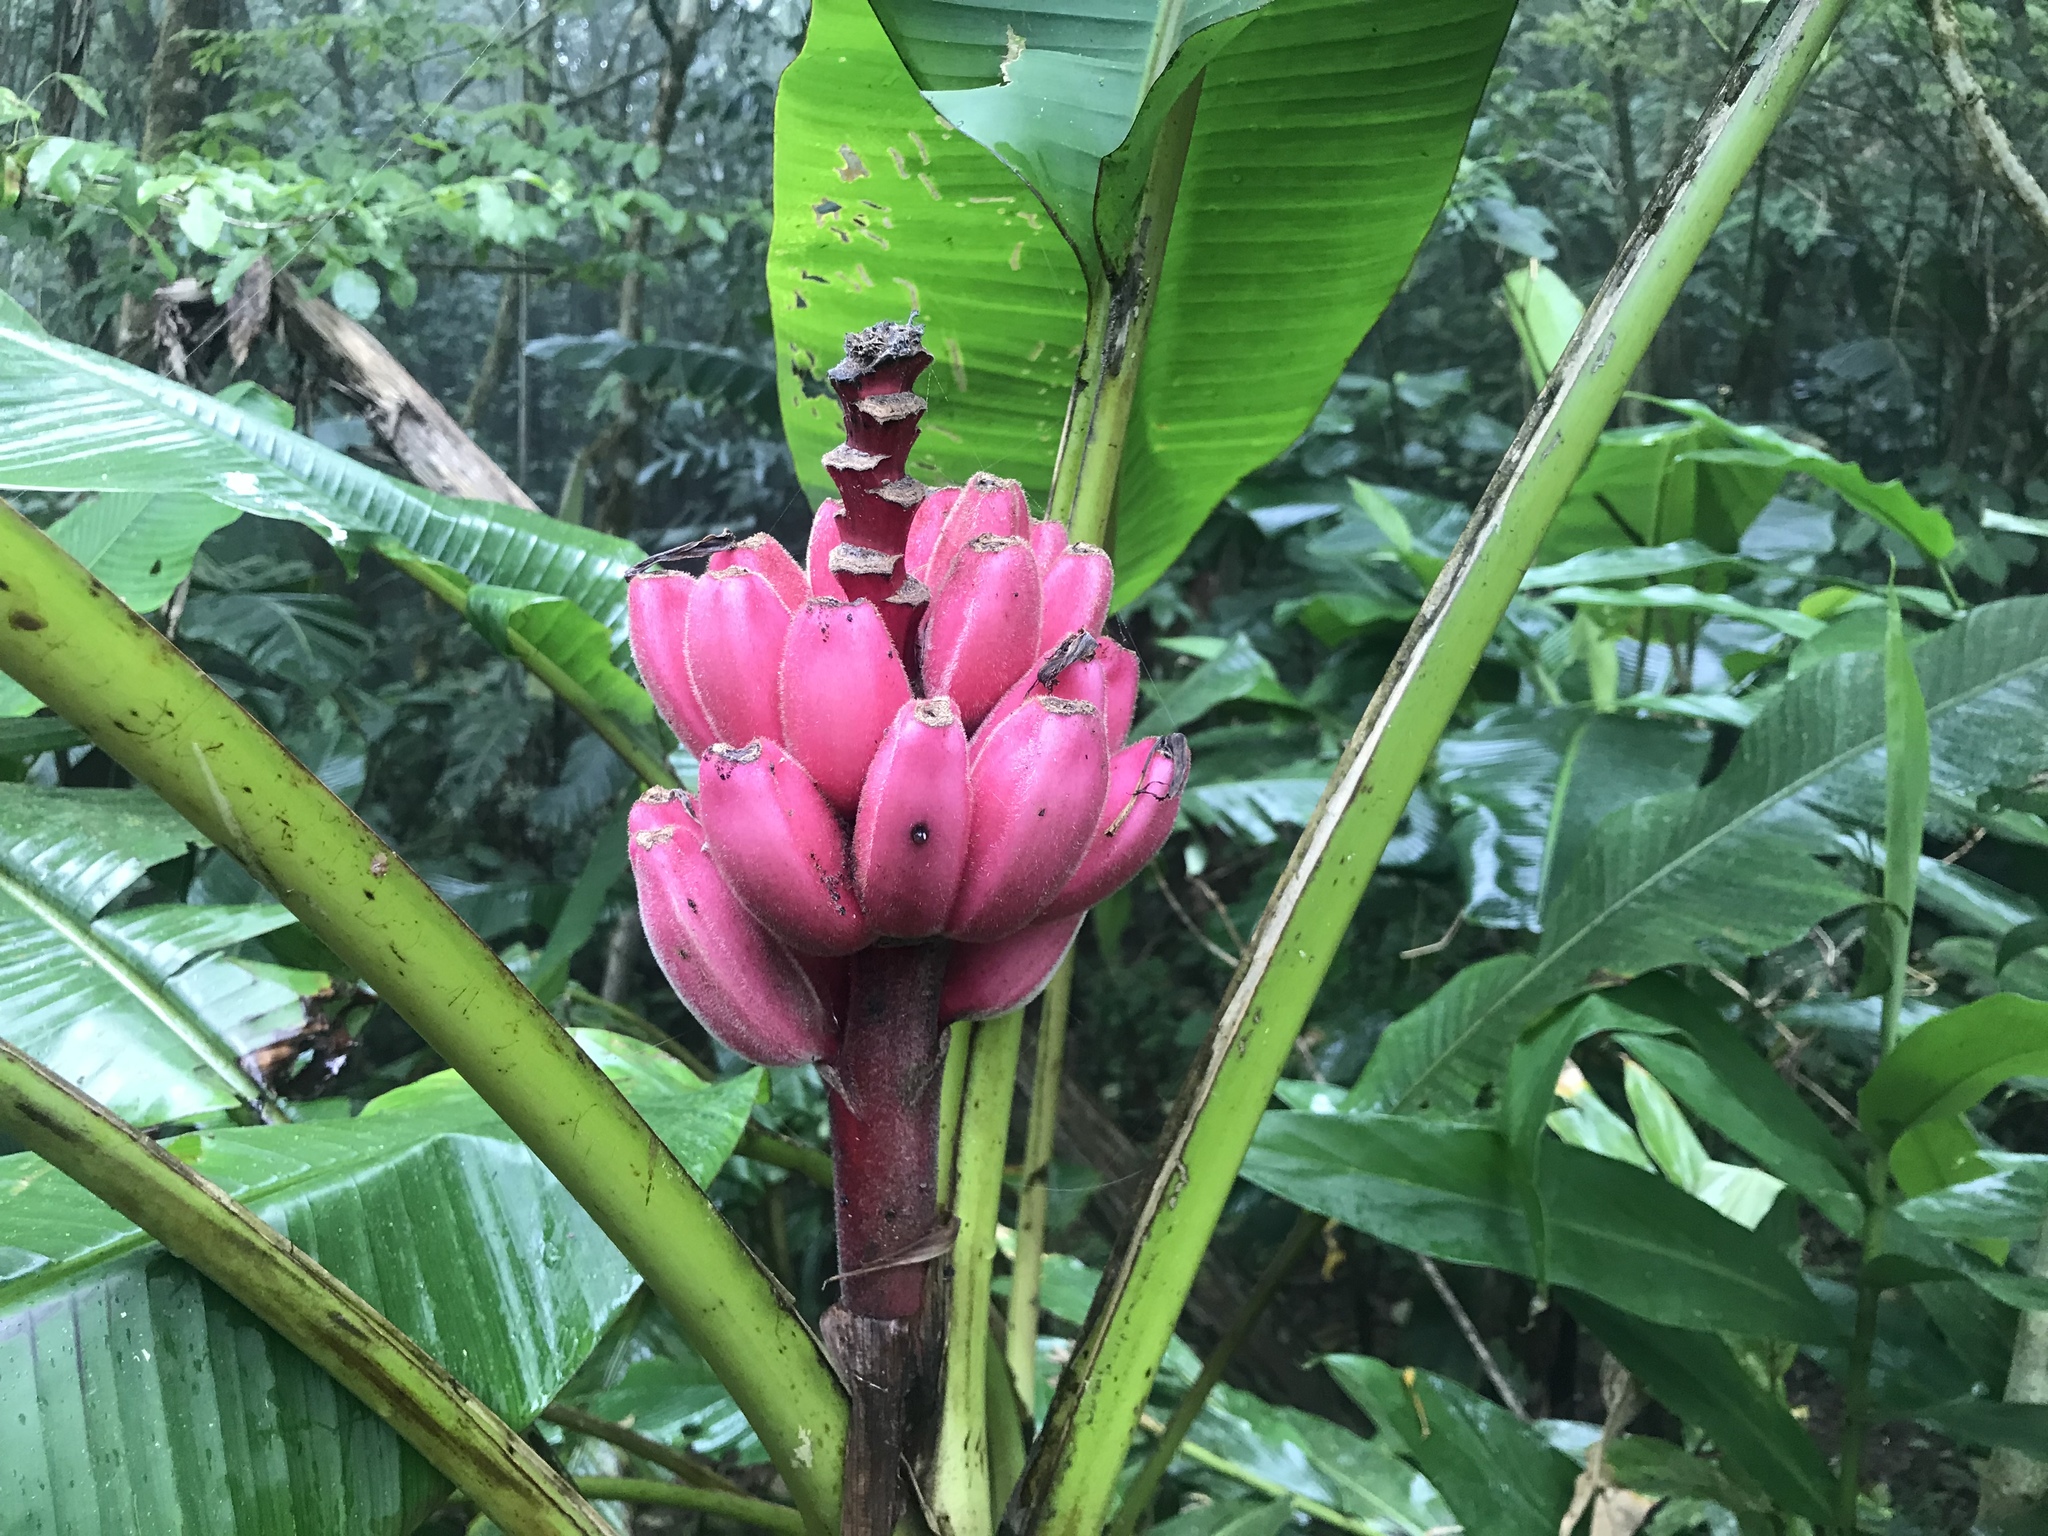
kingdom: Plantae
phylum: Tracheophyta
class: Liliopsida
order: Zingiberales
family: Musaceae
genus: Musa
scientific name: Musa velutina
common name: Pink velvet banana
